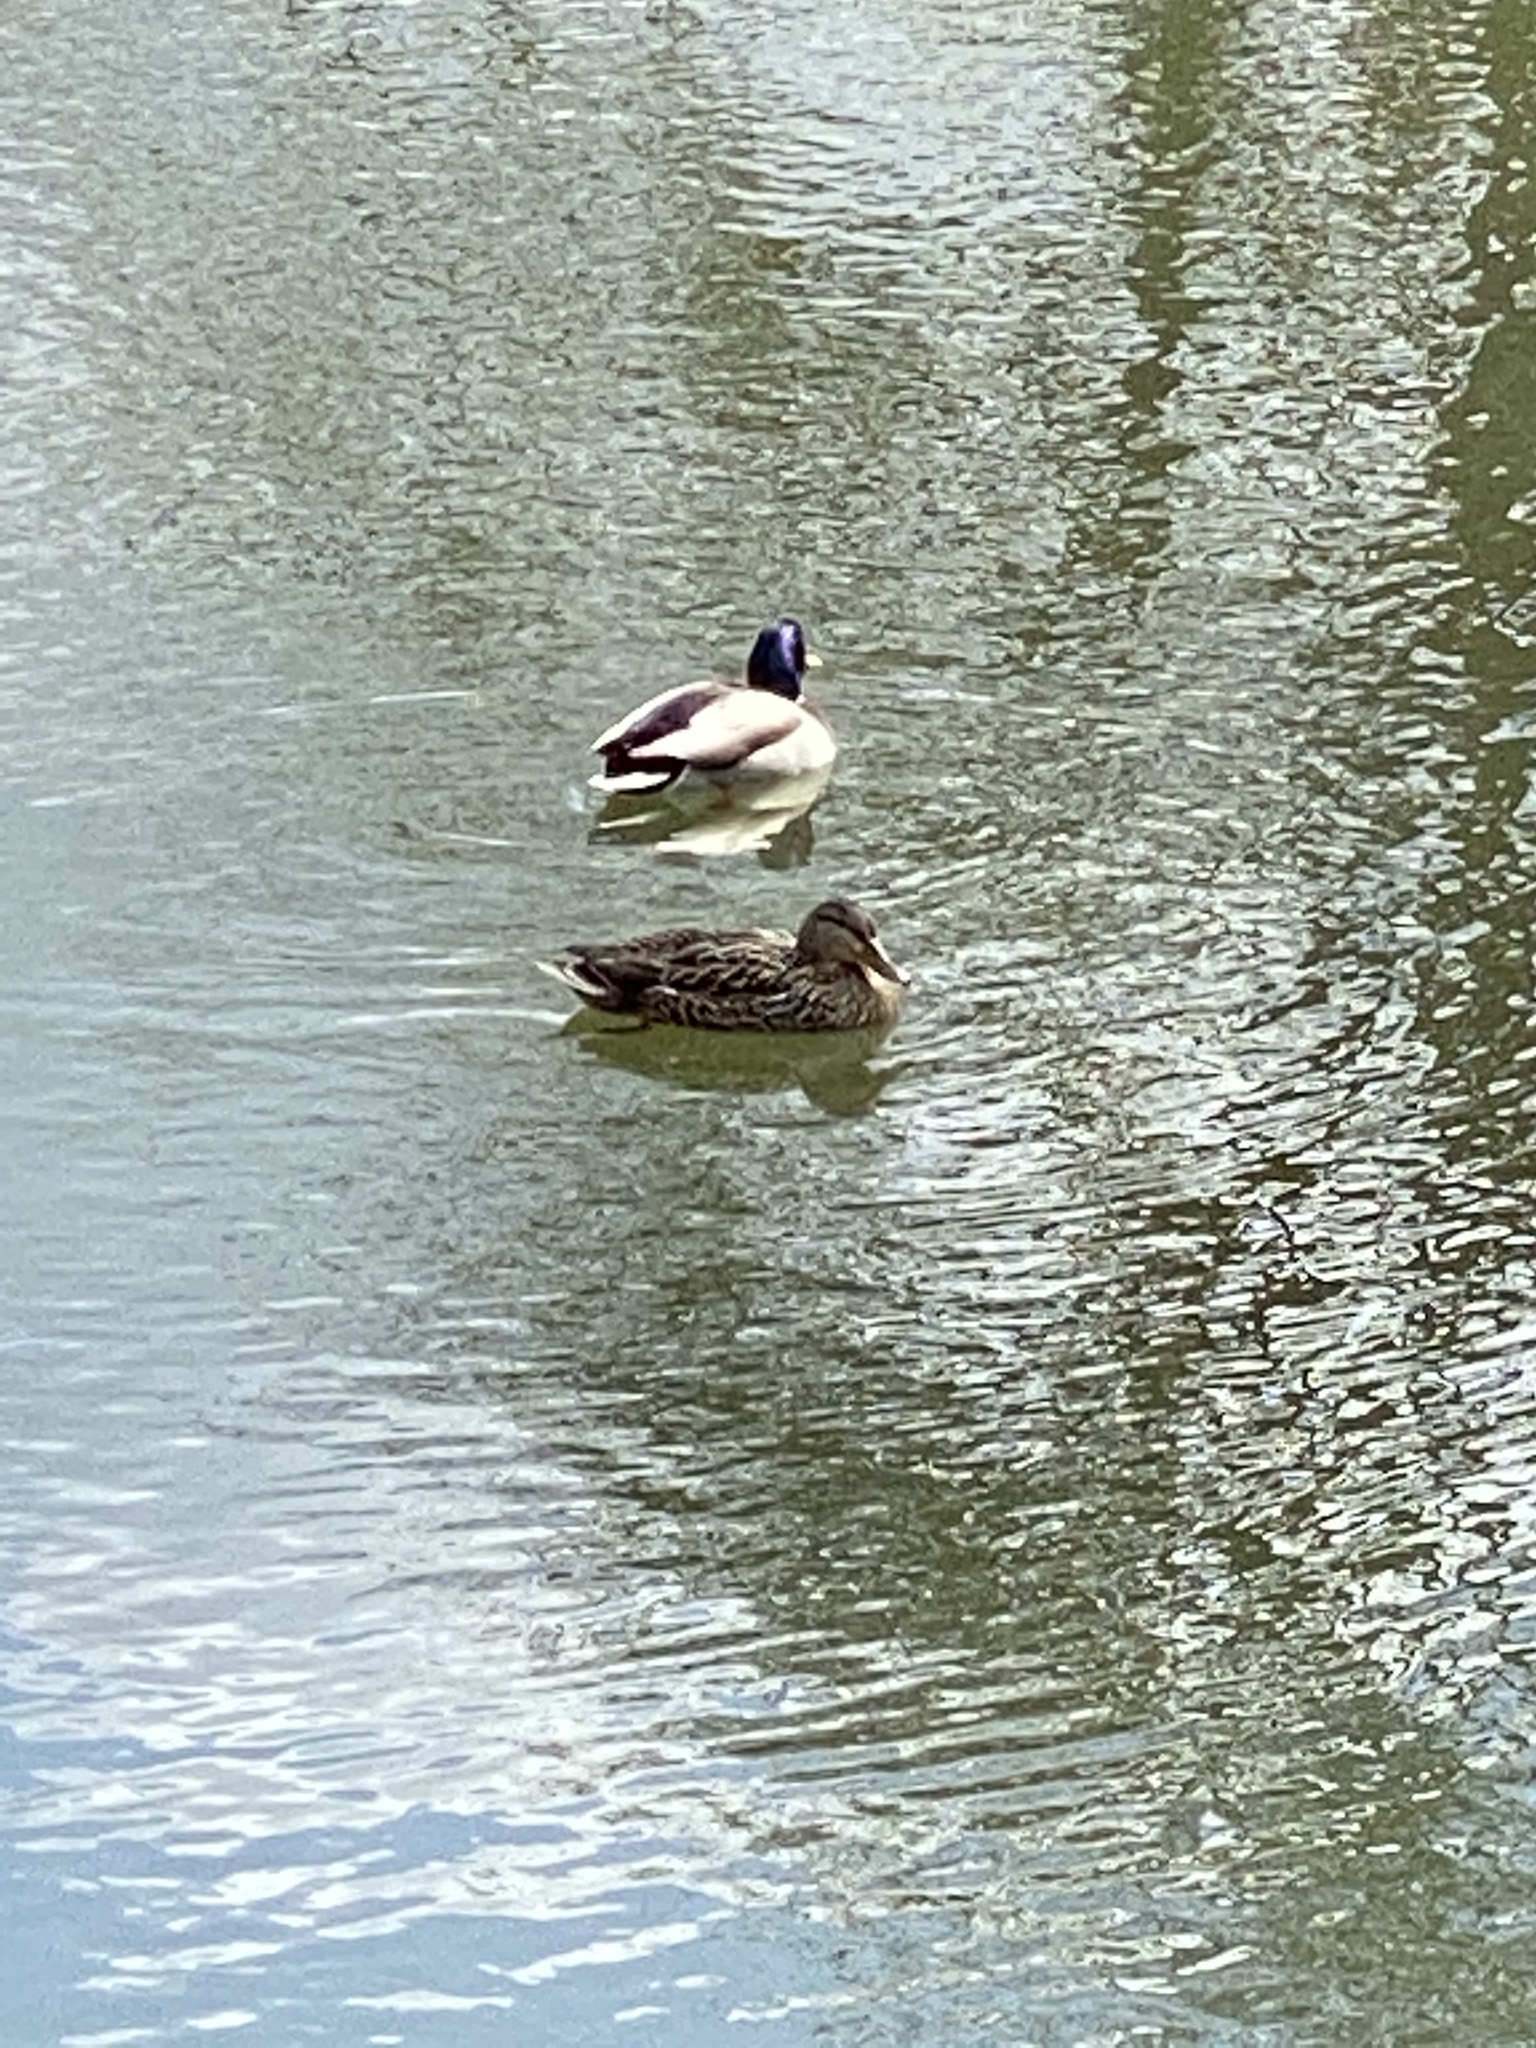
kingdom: Animalia
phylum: Chordata
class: Aves
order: Anseriformes
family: Anatidae
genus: Anas
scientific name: Anas platyrhynchos
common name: Mallard
